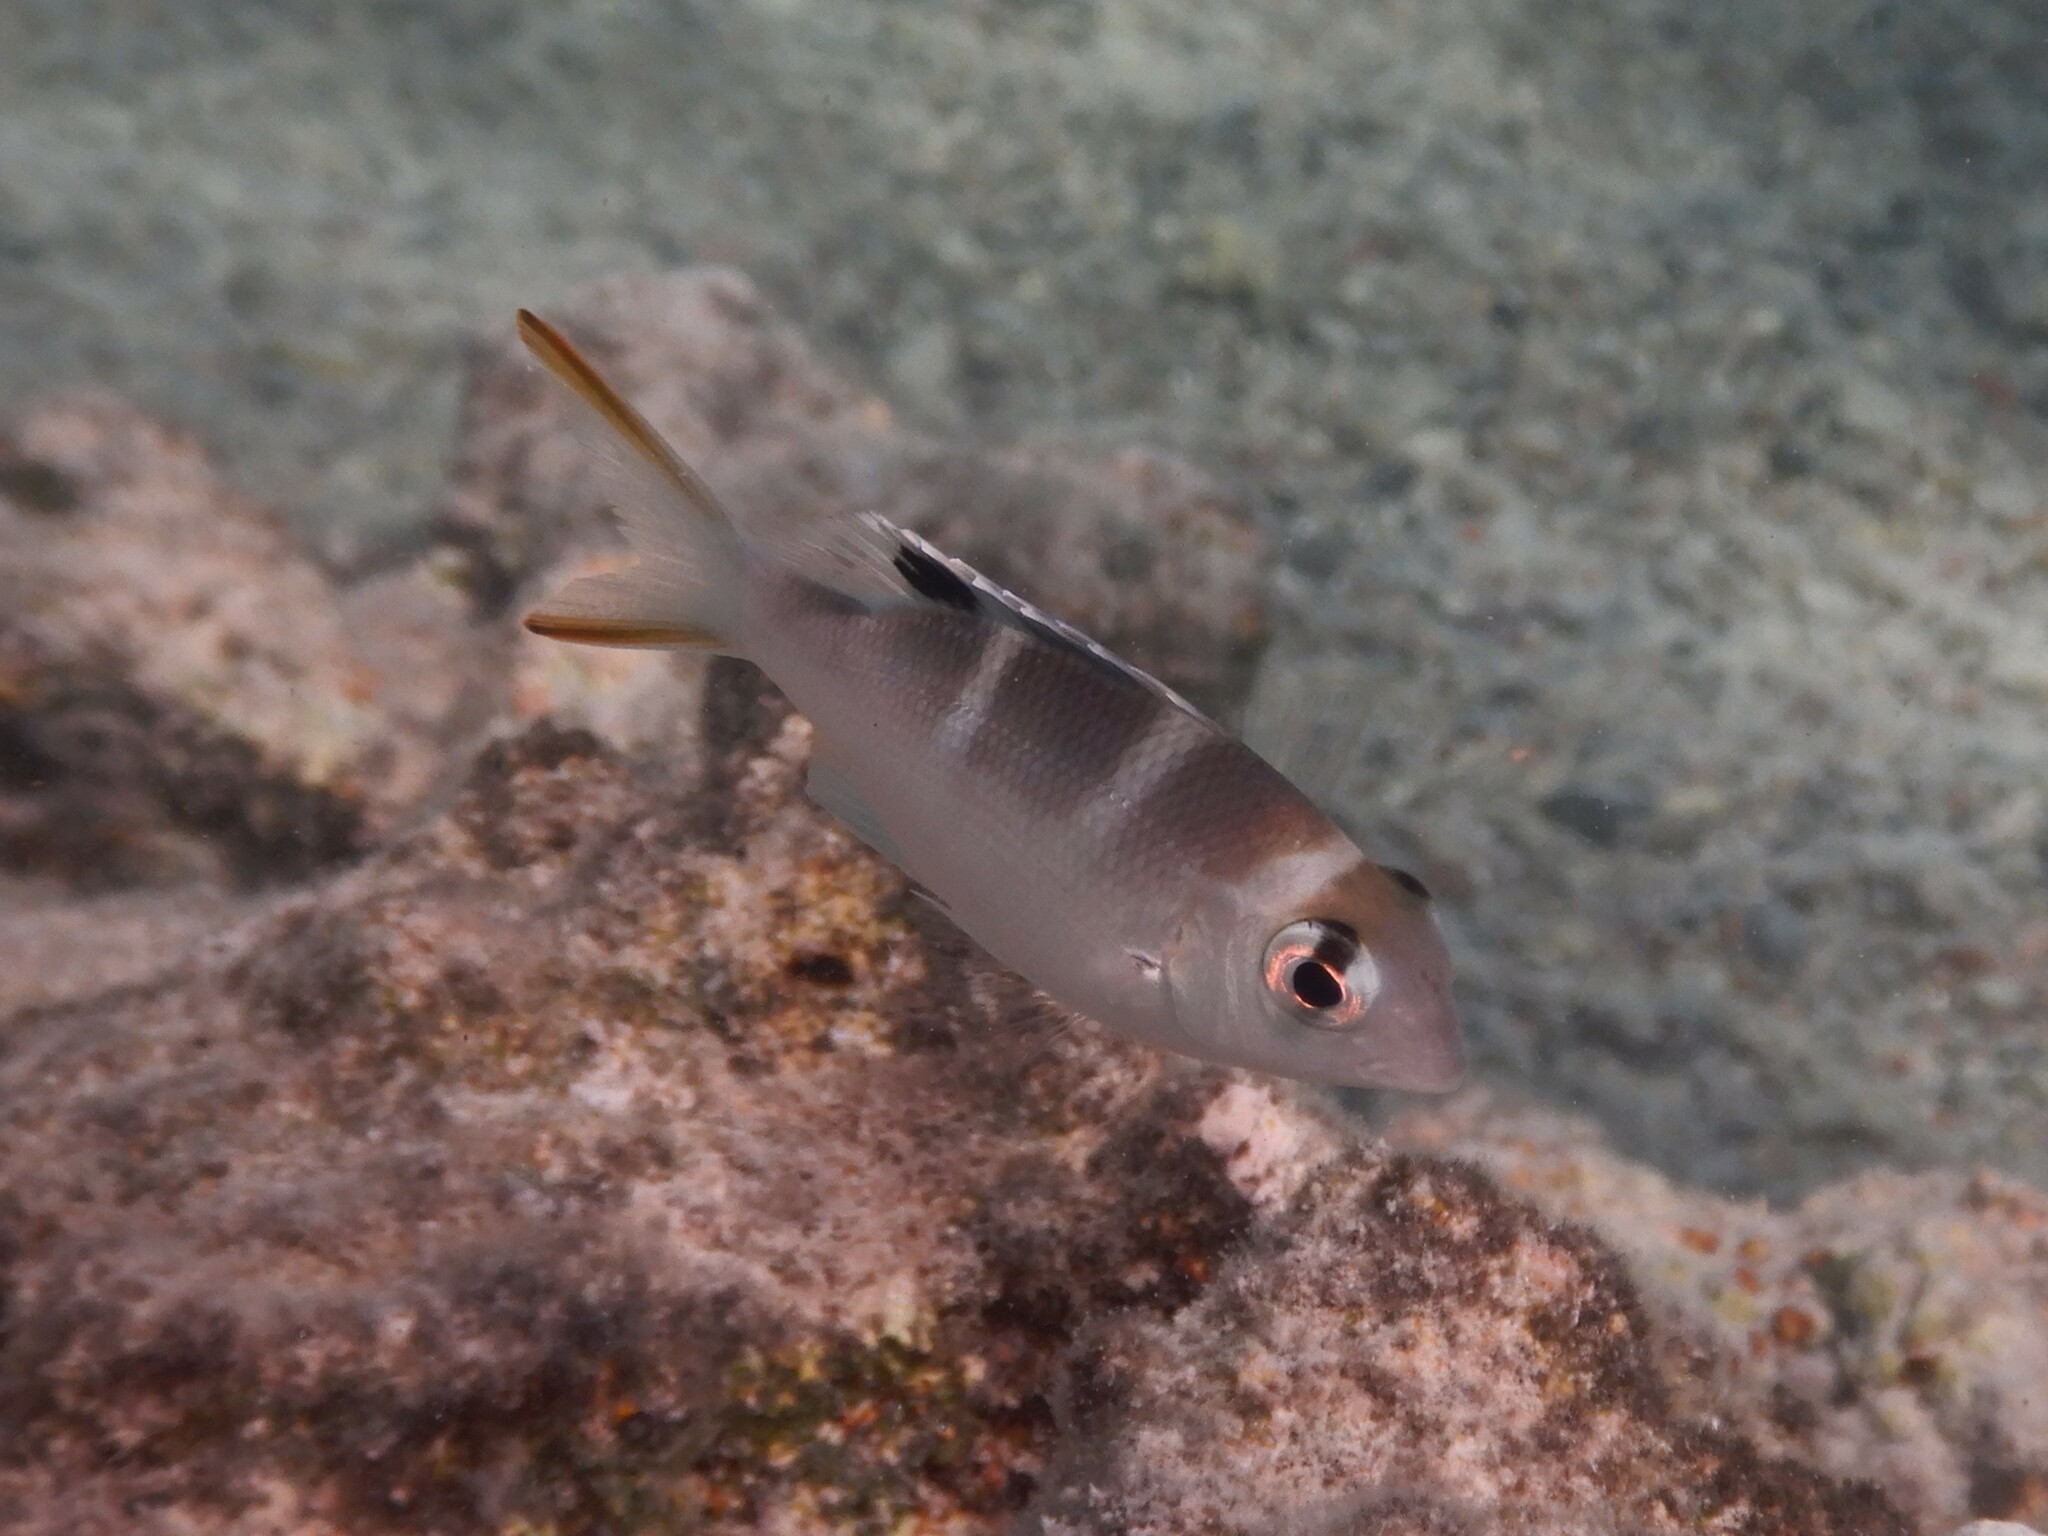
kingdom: Animalia
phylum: Chordata
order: Perciformes
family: Lethrinidae
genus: Monotaxis
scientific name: Monotaxis grandoculis
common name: Bigeye emperor
